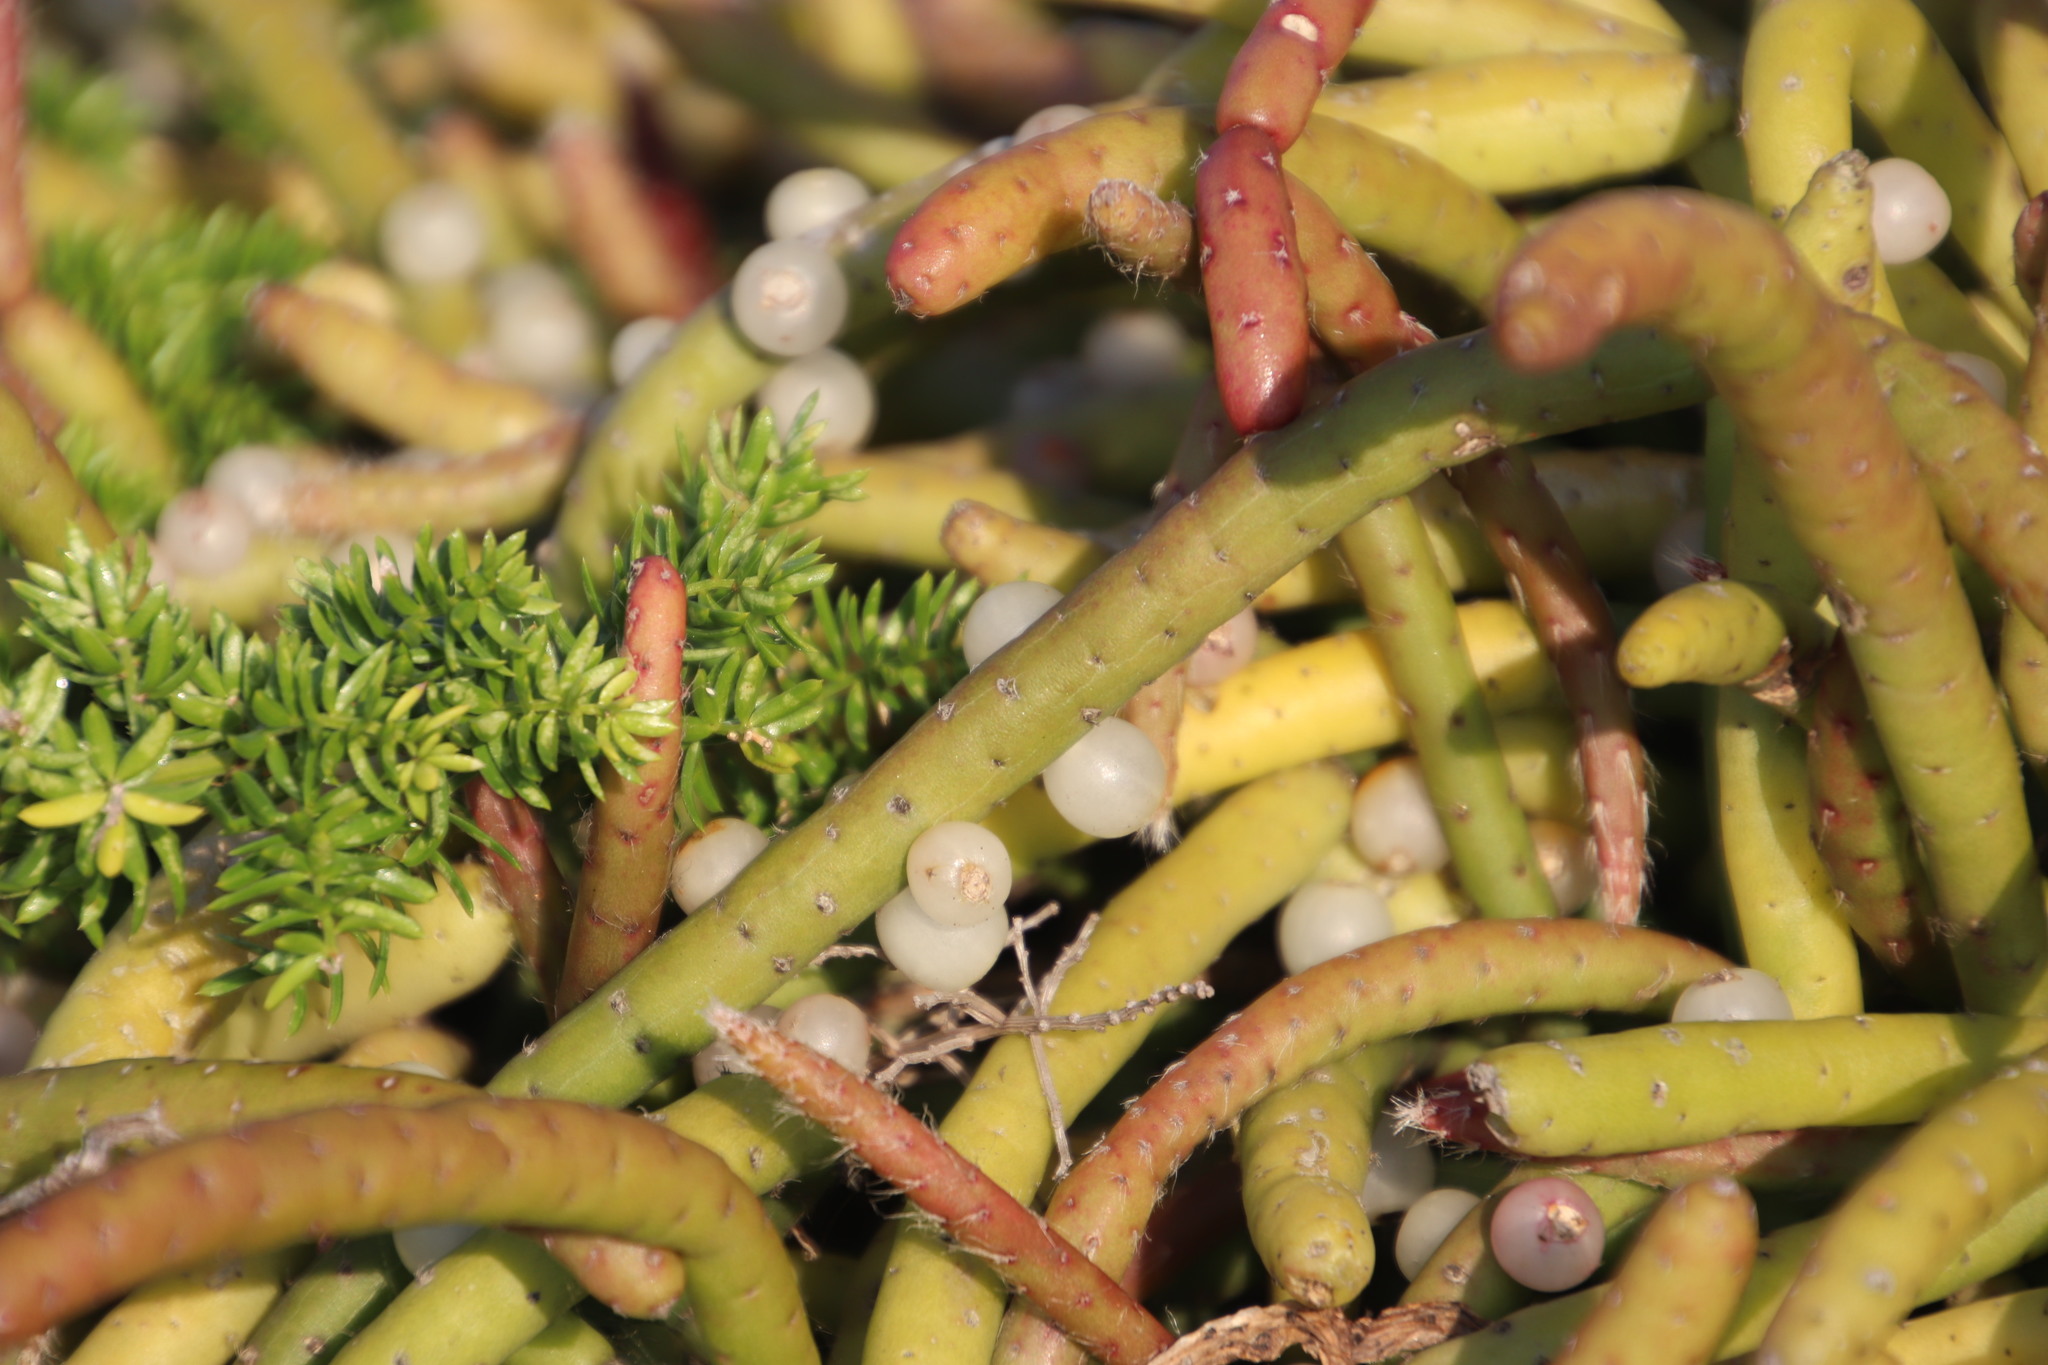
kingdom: Plantae
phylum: Tracheophyta
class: Liliopsida
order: Asparagales
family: Asparagaceae
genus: Asparagus
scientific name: Asparagus densiflorus
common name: Asparagus fern
